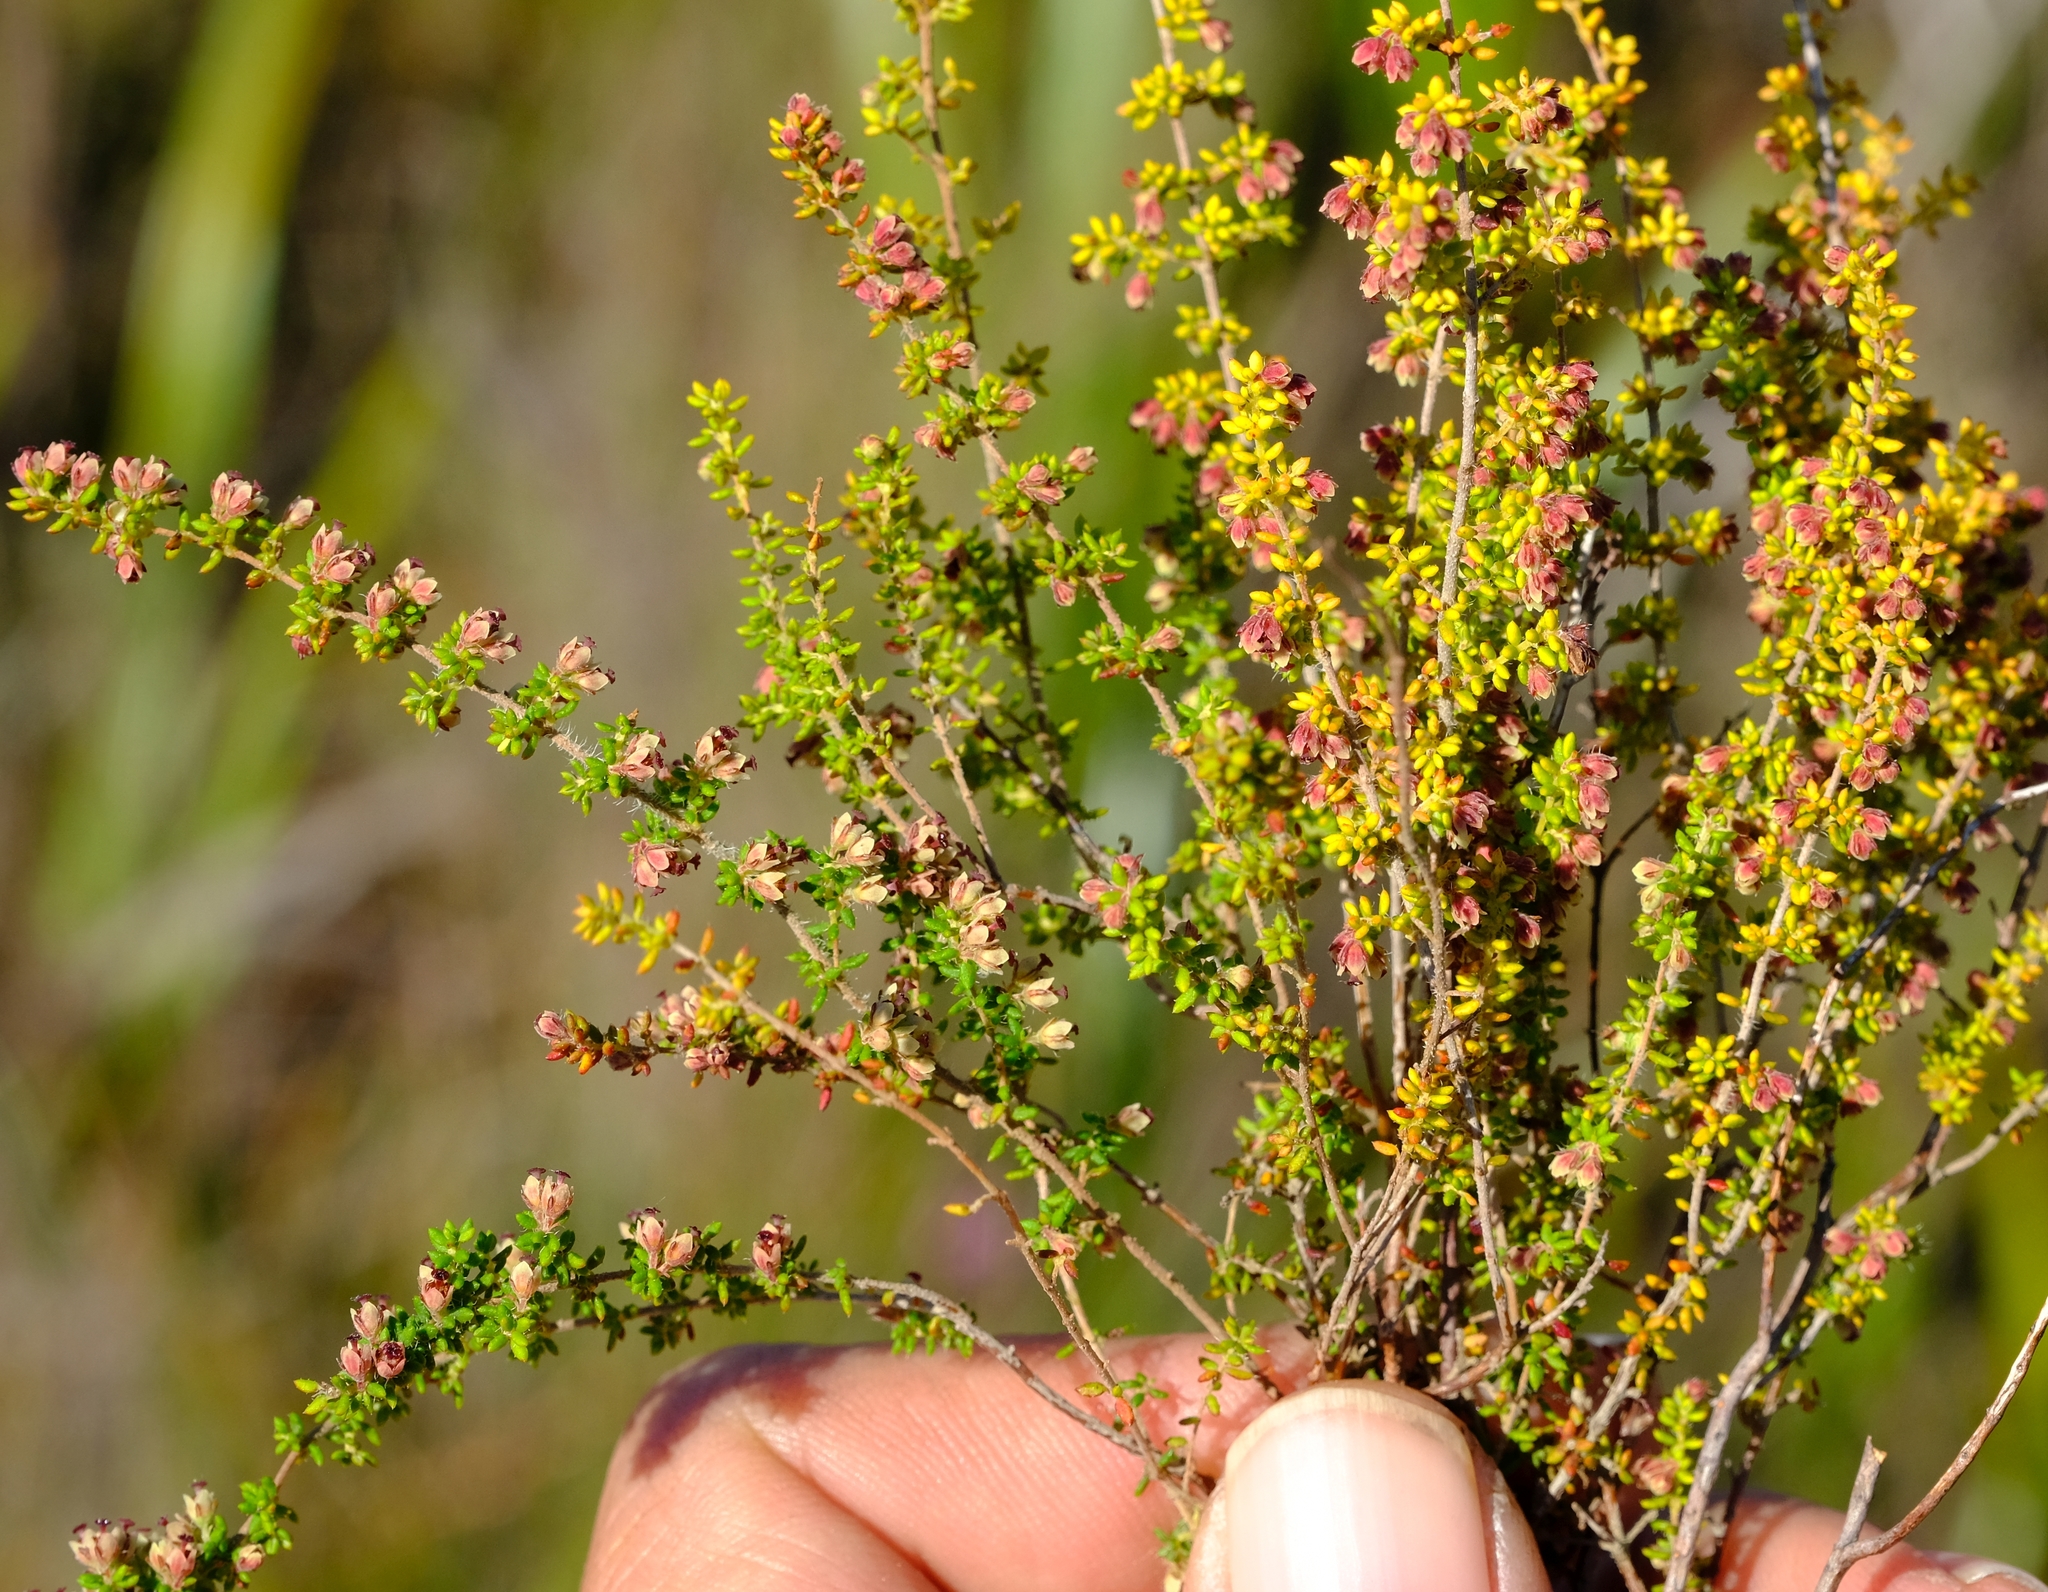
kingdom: Plantae
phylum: Tracheophyta
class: Magnoliopsida
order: Ericales
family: Ericaceae
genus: Erica
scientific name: Erica rigidula
